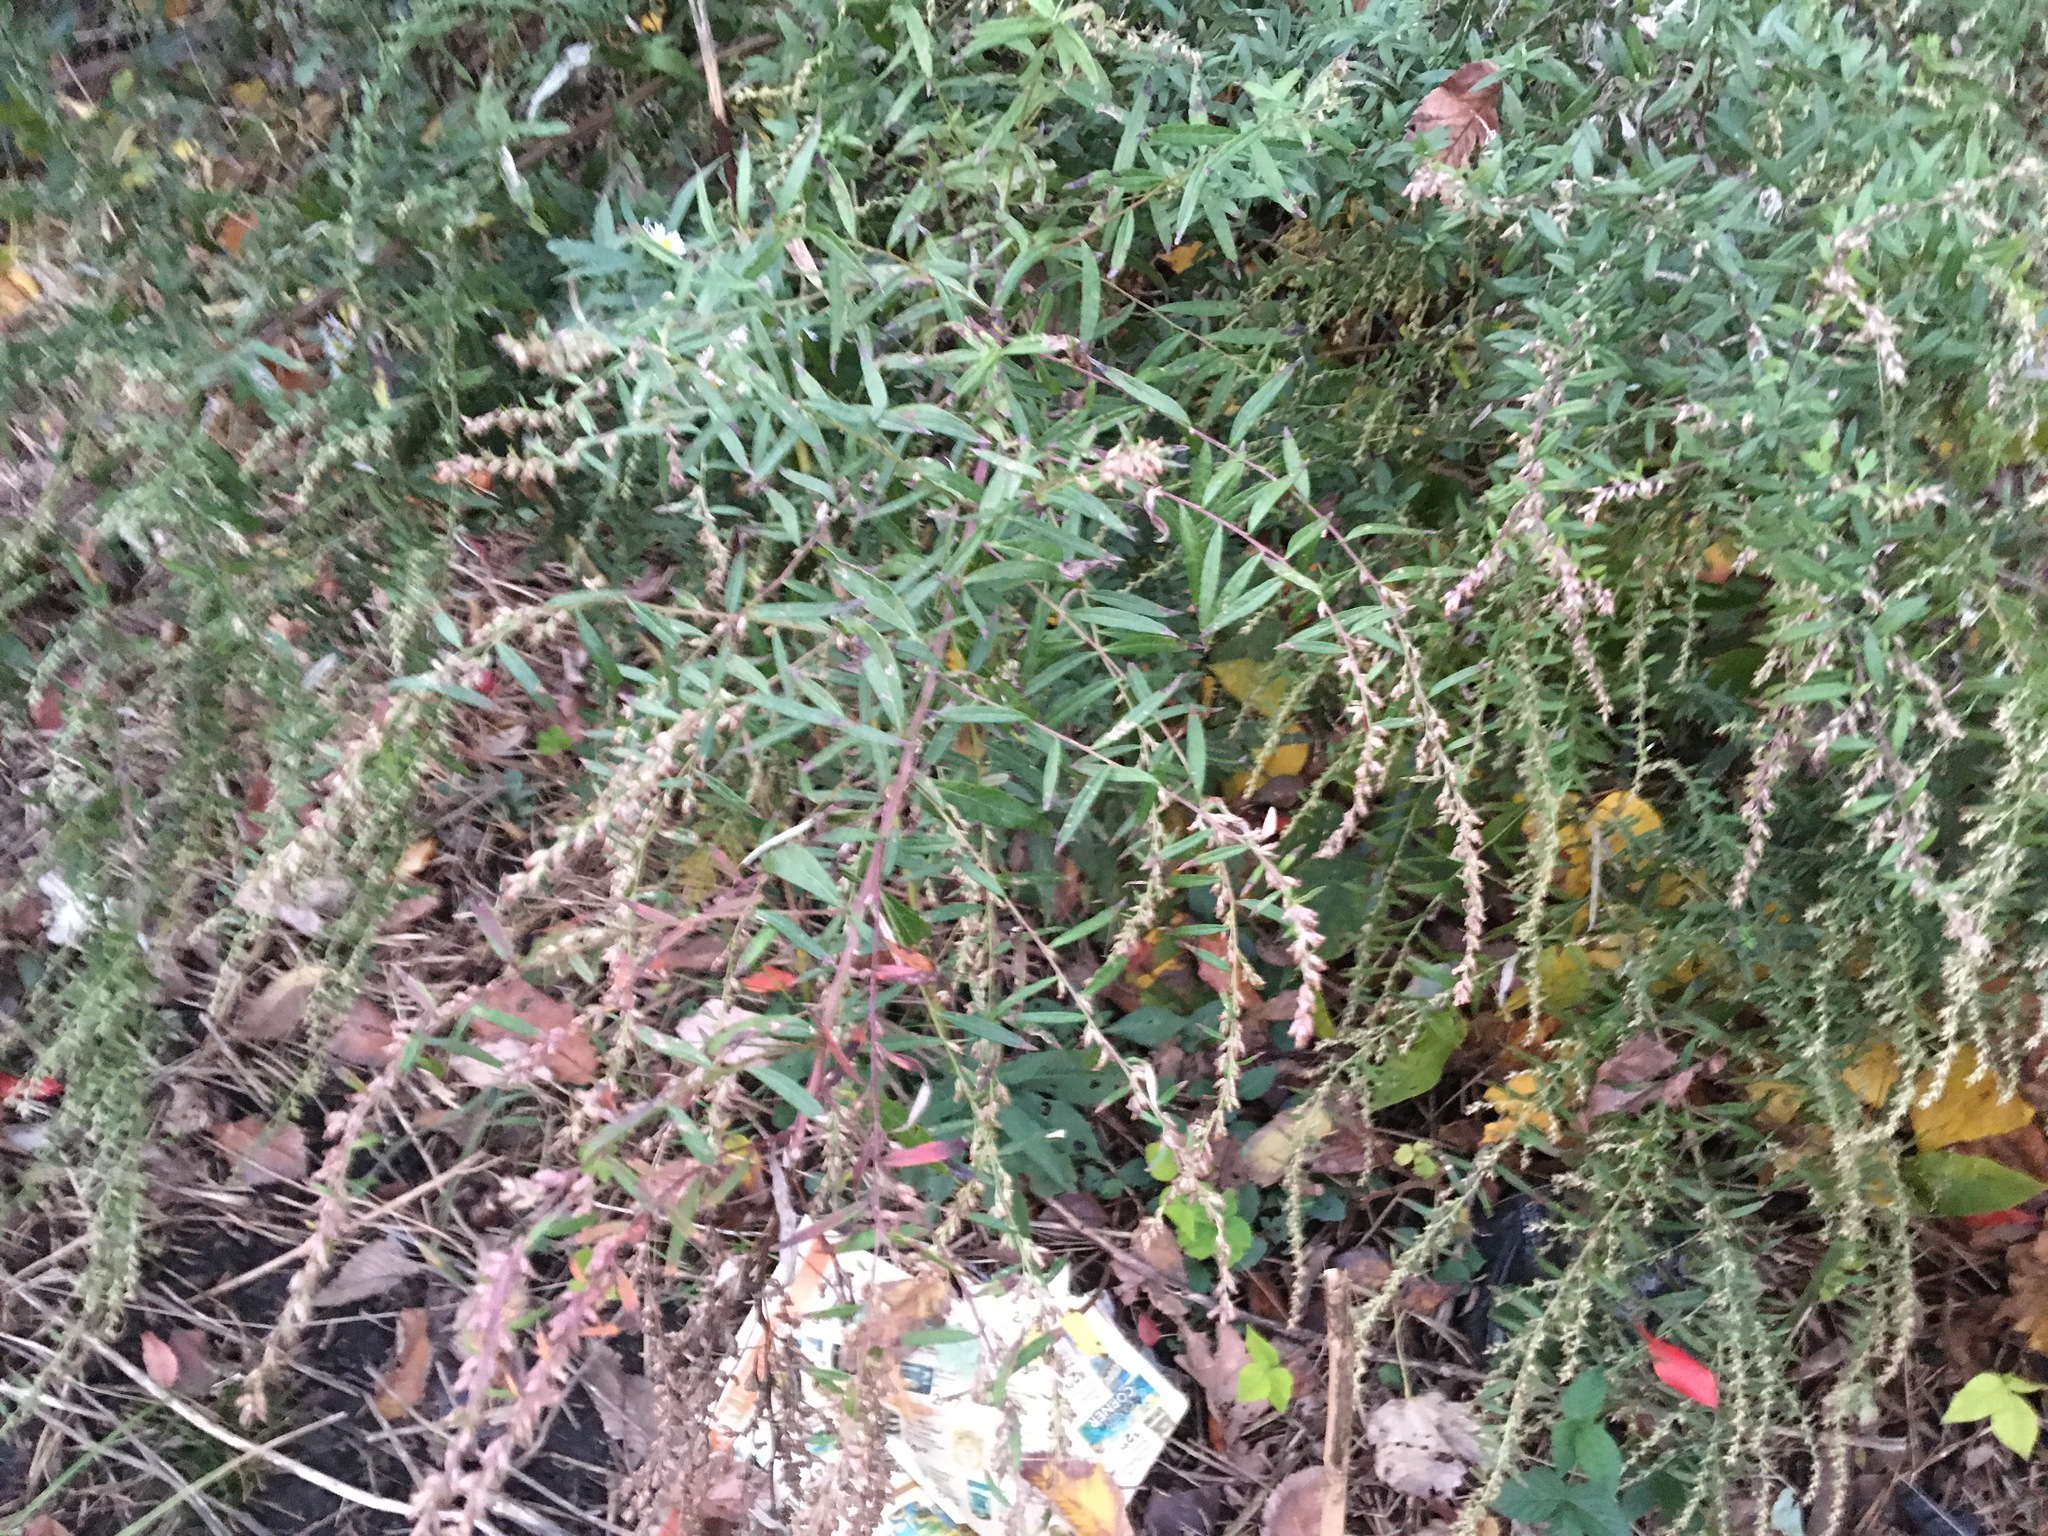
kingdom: Plantae
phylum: Tracheophyta
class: Magnoliopsida
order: Asterales
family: Asteraceae
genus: Artemisia
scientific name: Artemisia vulgaris
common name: Mugwort
